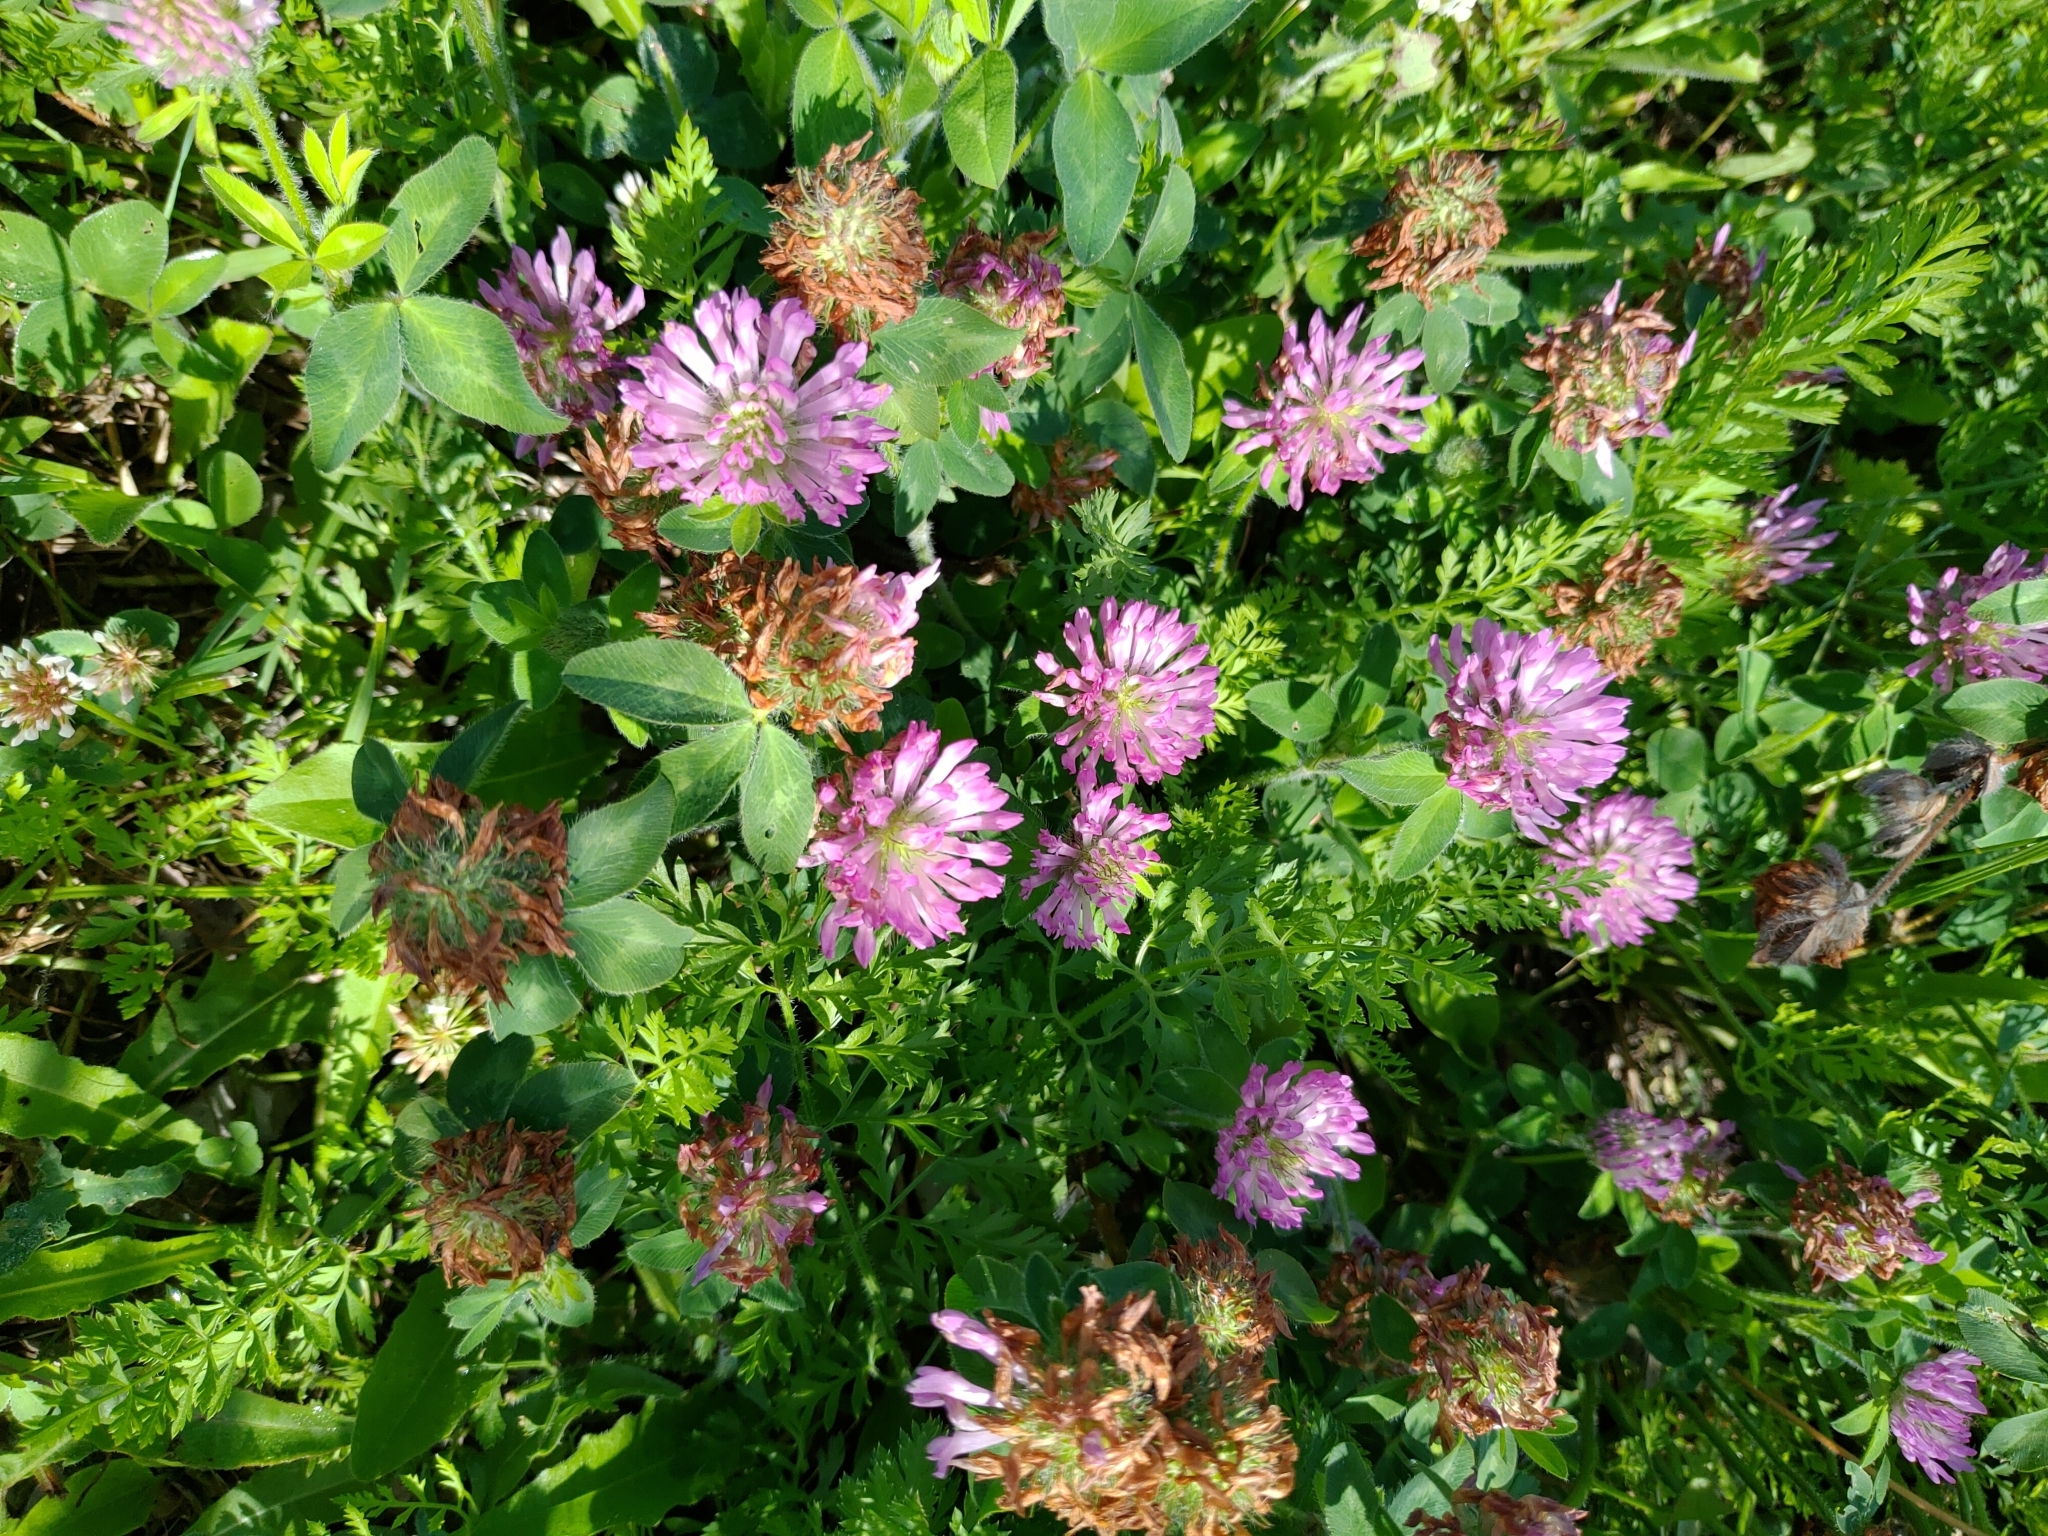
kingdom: Plantae
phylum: Tracheophyta
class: Magnoliopsida
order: Fabales
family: Fabaceae
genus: Trifolium
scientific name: Trifolium pratense
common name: Red clover
